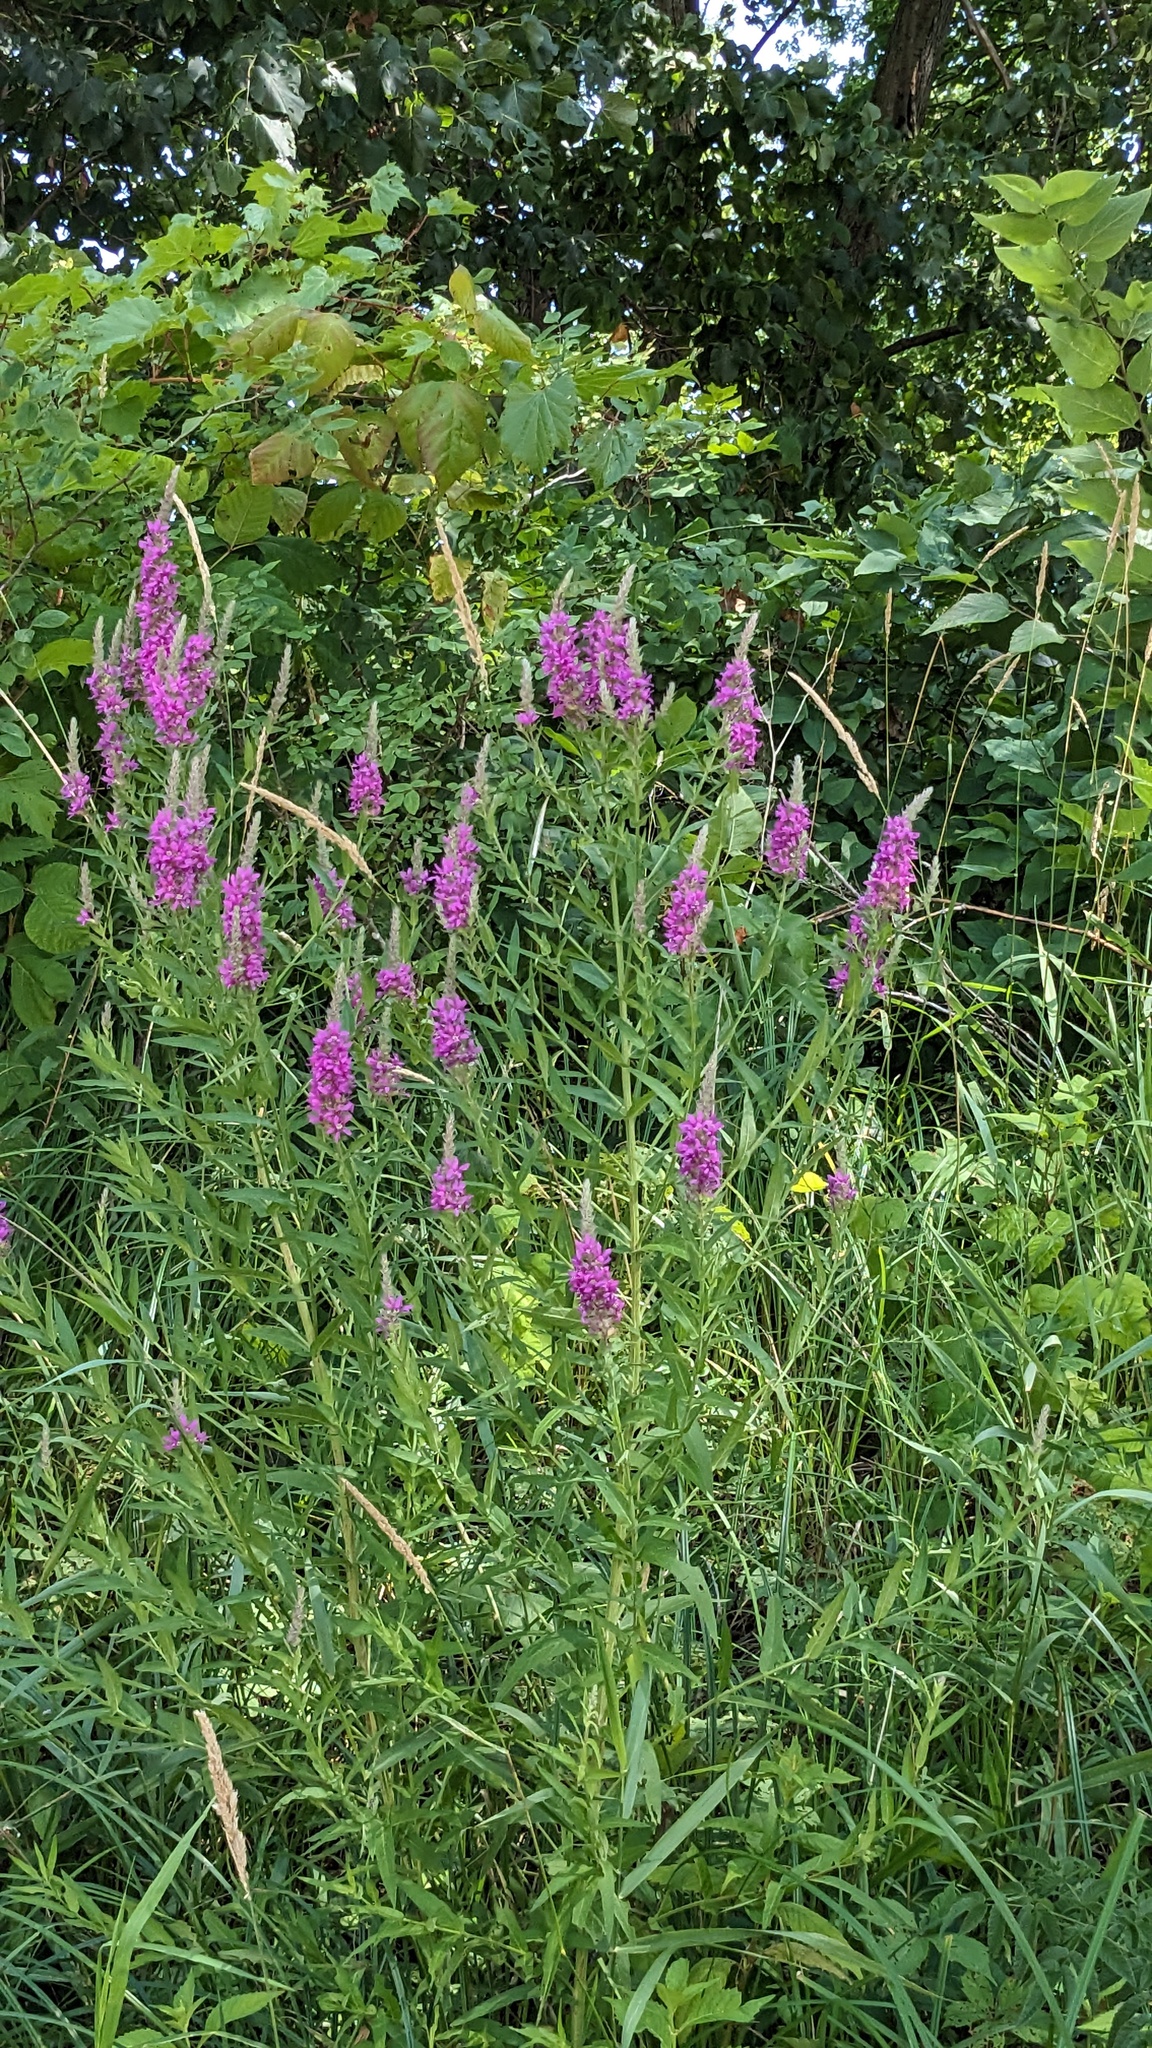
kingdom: Plantae
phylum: Tracheophyta
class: Magnoliopsida
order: Myrtales
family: Lythraceae
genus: Lythrum
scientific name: Lythrum salicaria
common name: Purple loosestrife
